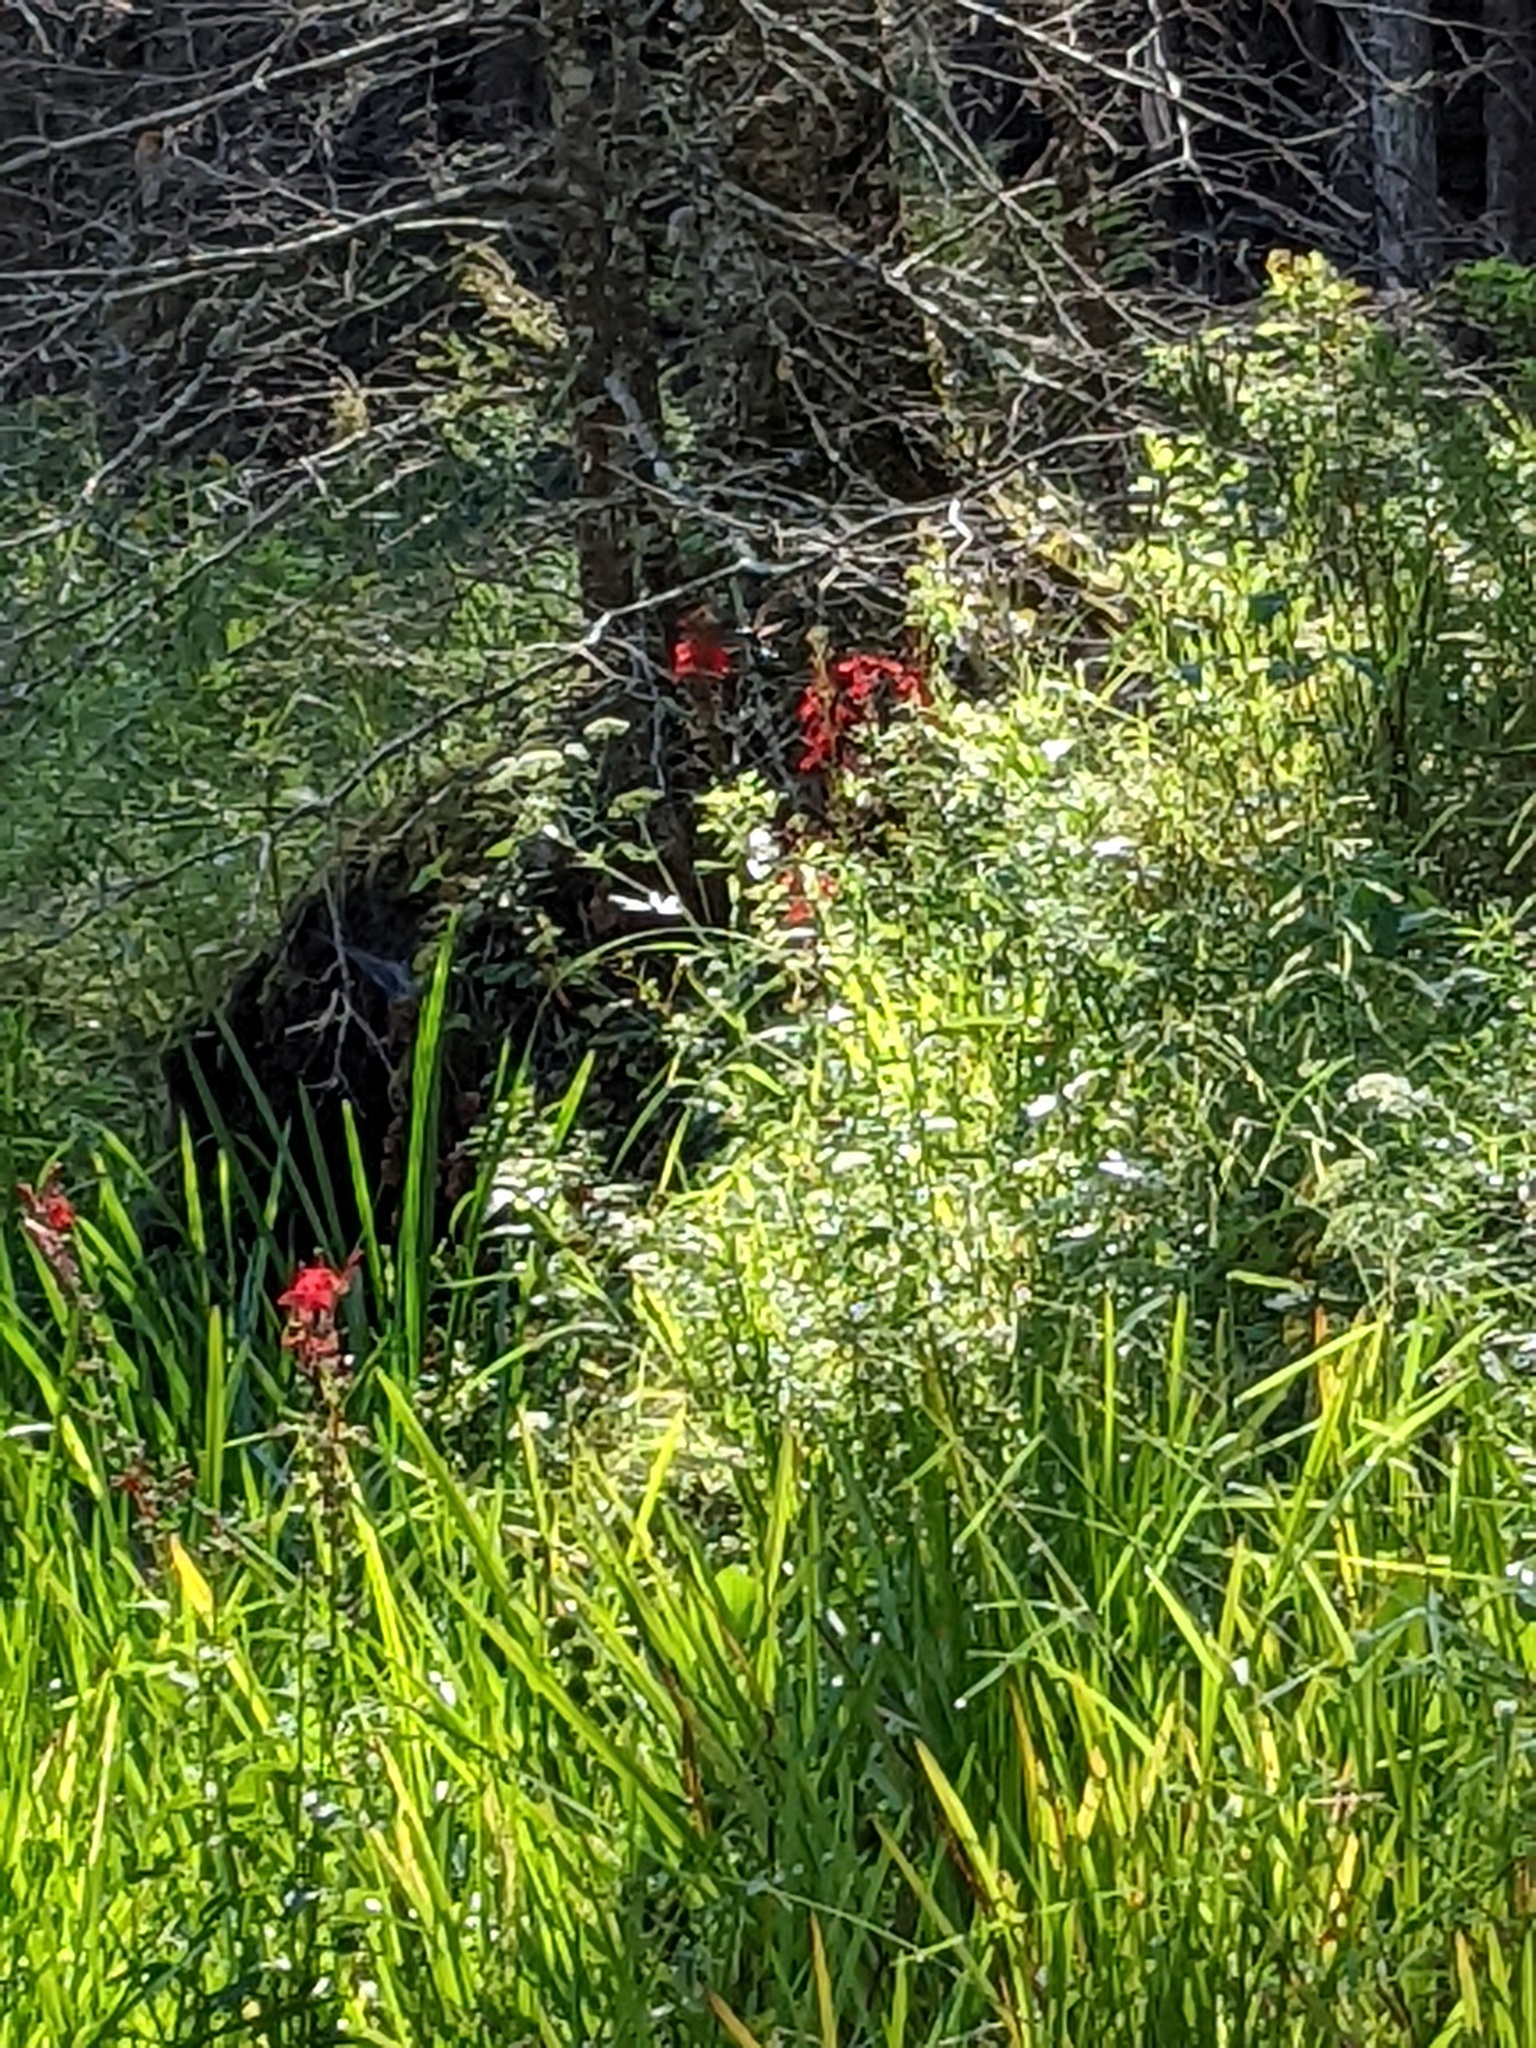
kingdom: Animalia
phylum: Chordata
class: Aves
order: Apodiformes
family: Trochilidae
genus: Archilochus
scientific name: Archilochus colubris
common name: Ruby-throated hummingbird
